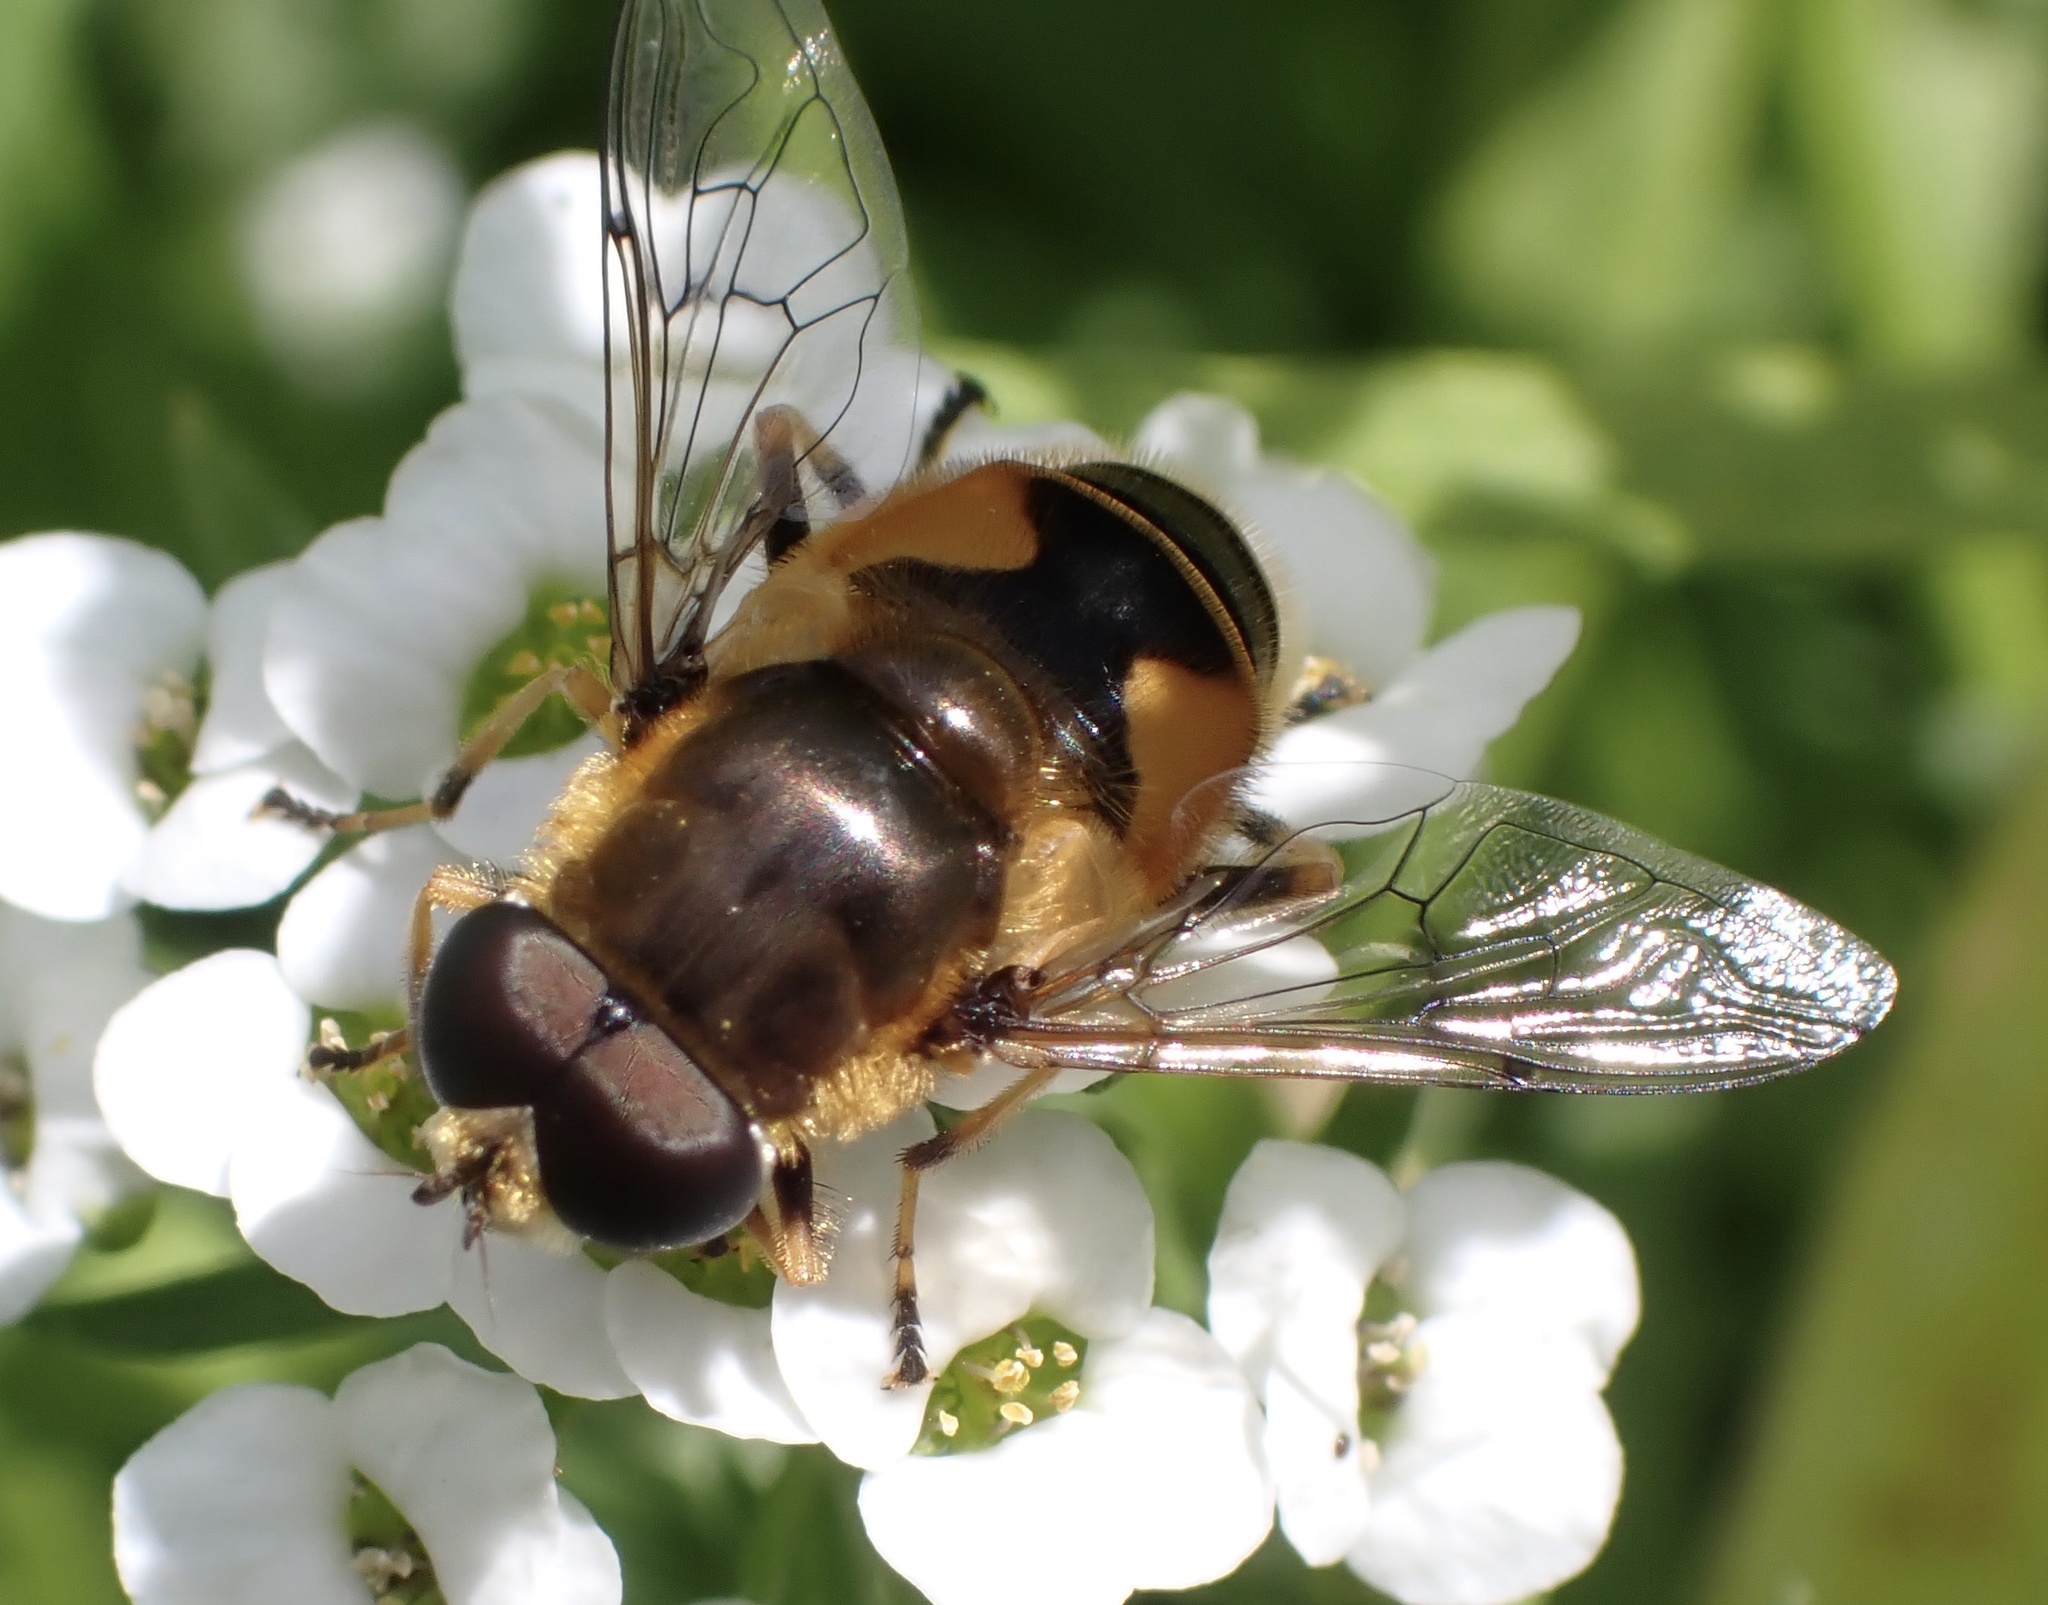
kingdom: Animalia
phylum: Arthropoda
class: Insecta
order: Diptera
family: Syrphidae
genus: Cheilosia
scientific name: Cheilosia morio
